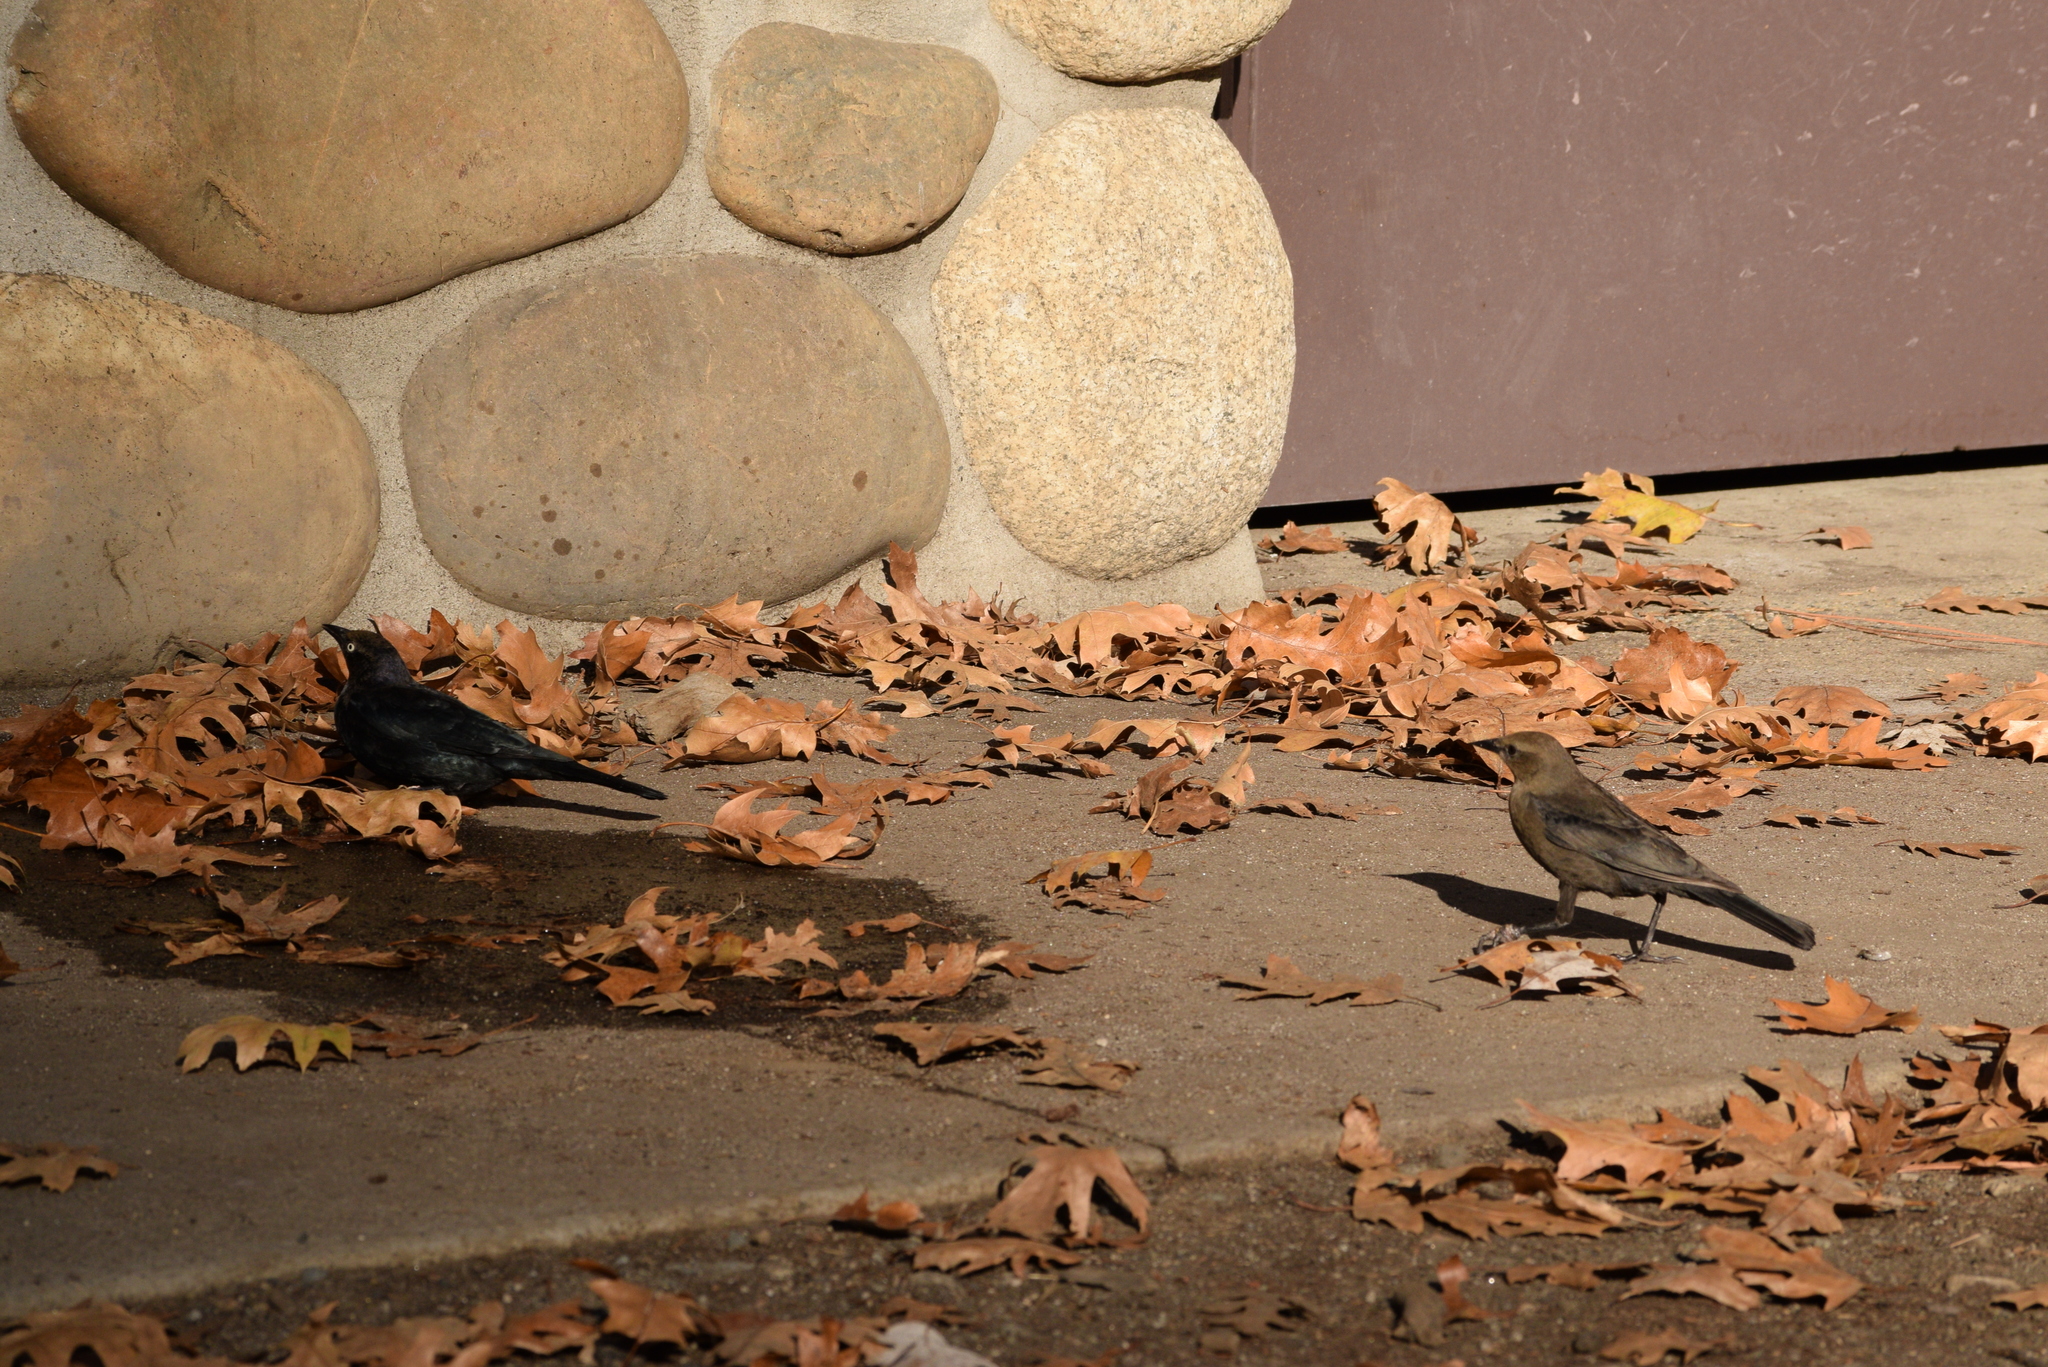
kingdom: Animalia
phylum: Chordata
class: Aves
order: Passeriformes
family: Icteridae
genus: Euphagus
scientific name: Euphagus cyanocephalus
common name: Brewer's blackbird
